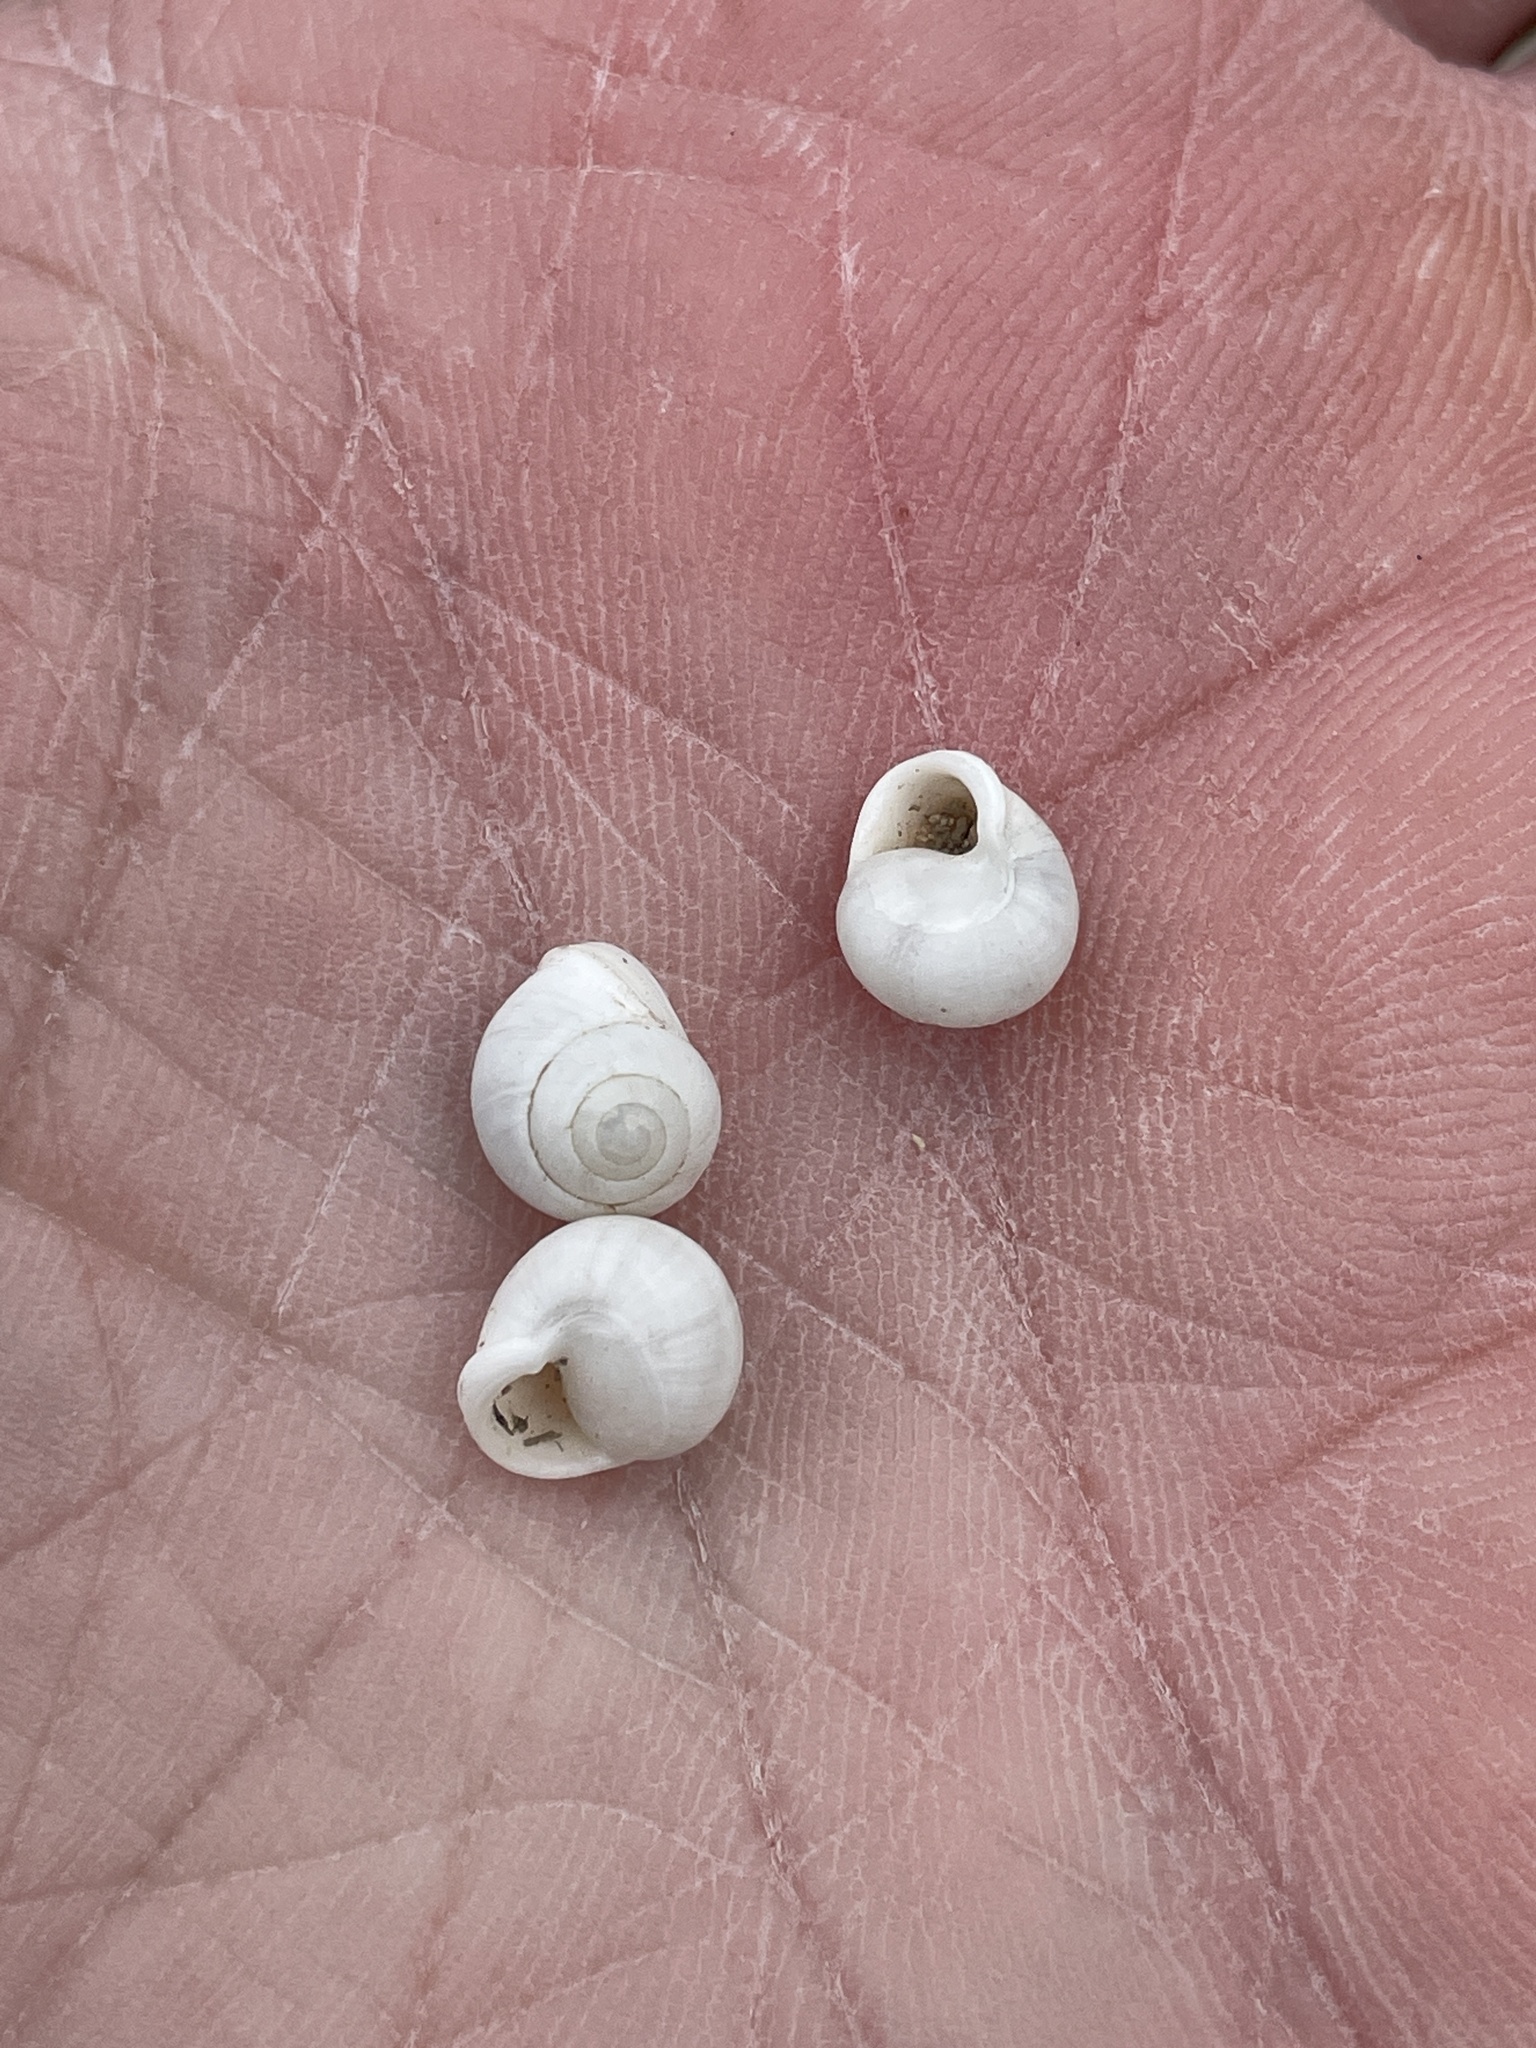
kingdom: Animalia
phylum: Mollusca
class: Gastropoda
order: Cycloneritida
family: Helicinidae
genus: Helicina
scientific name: Helicina orbiculata
